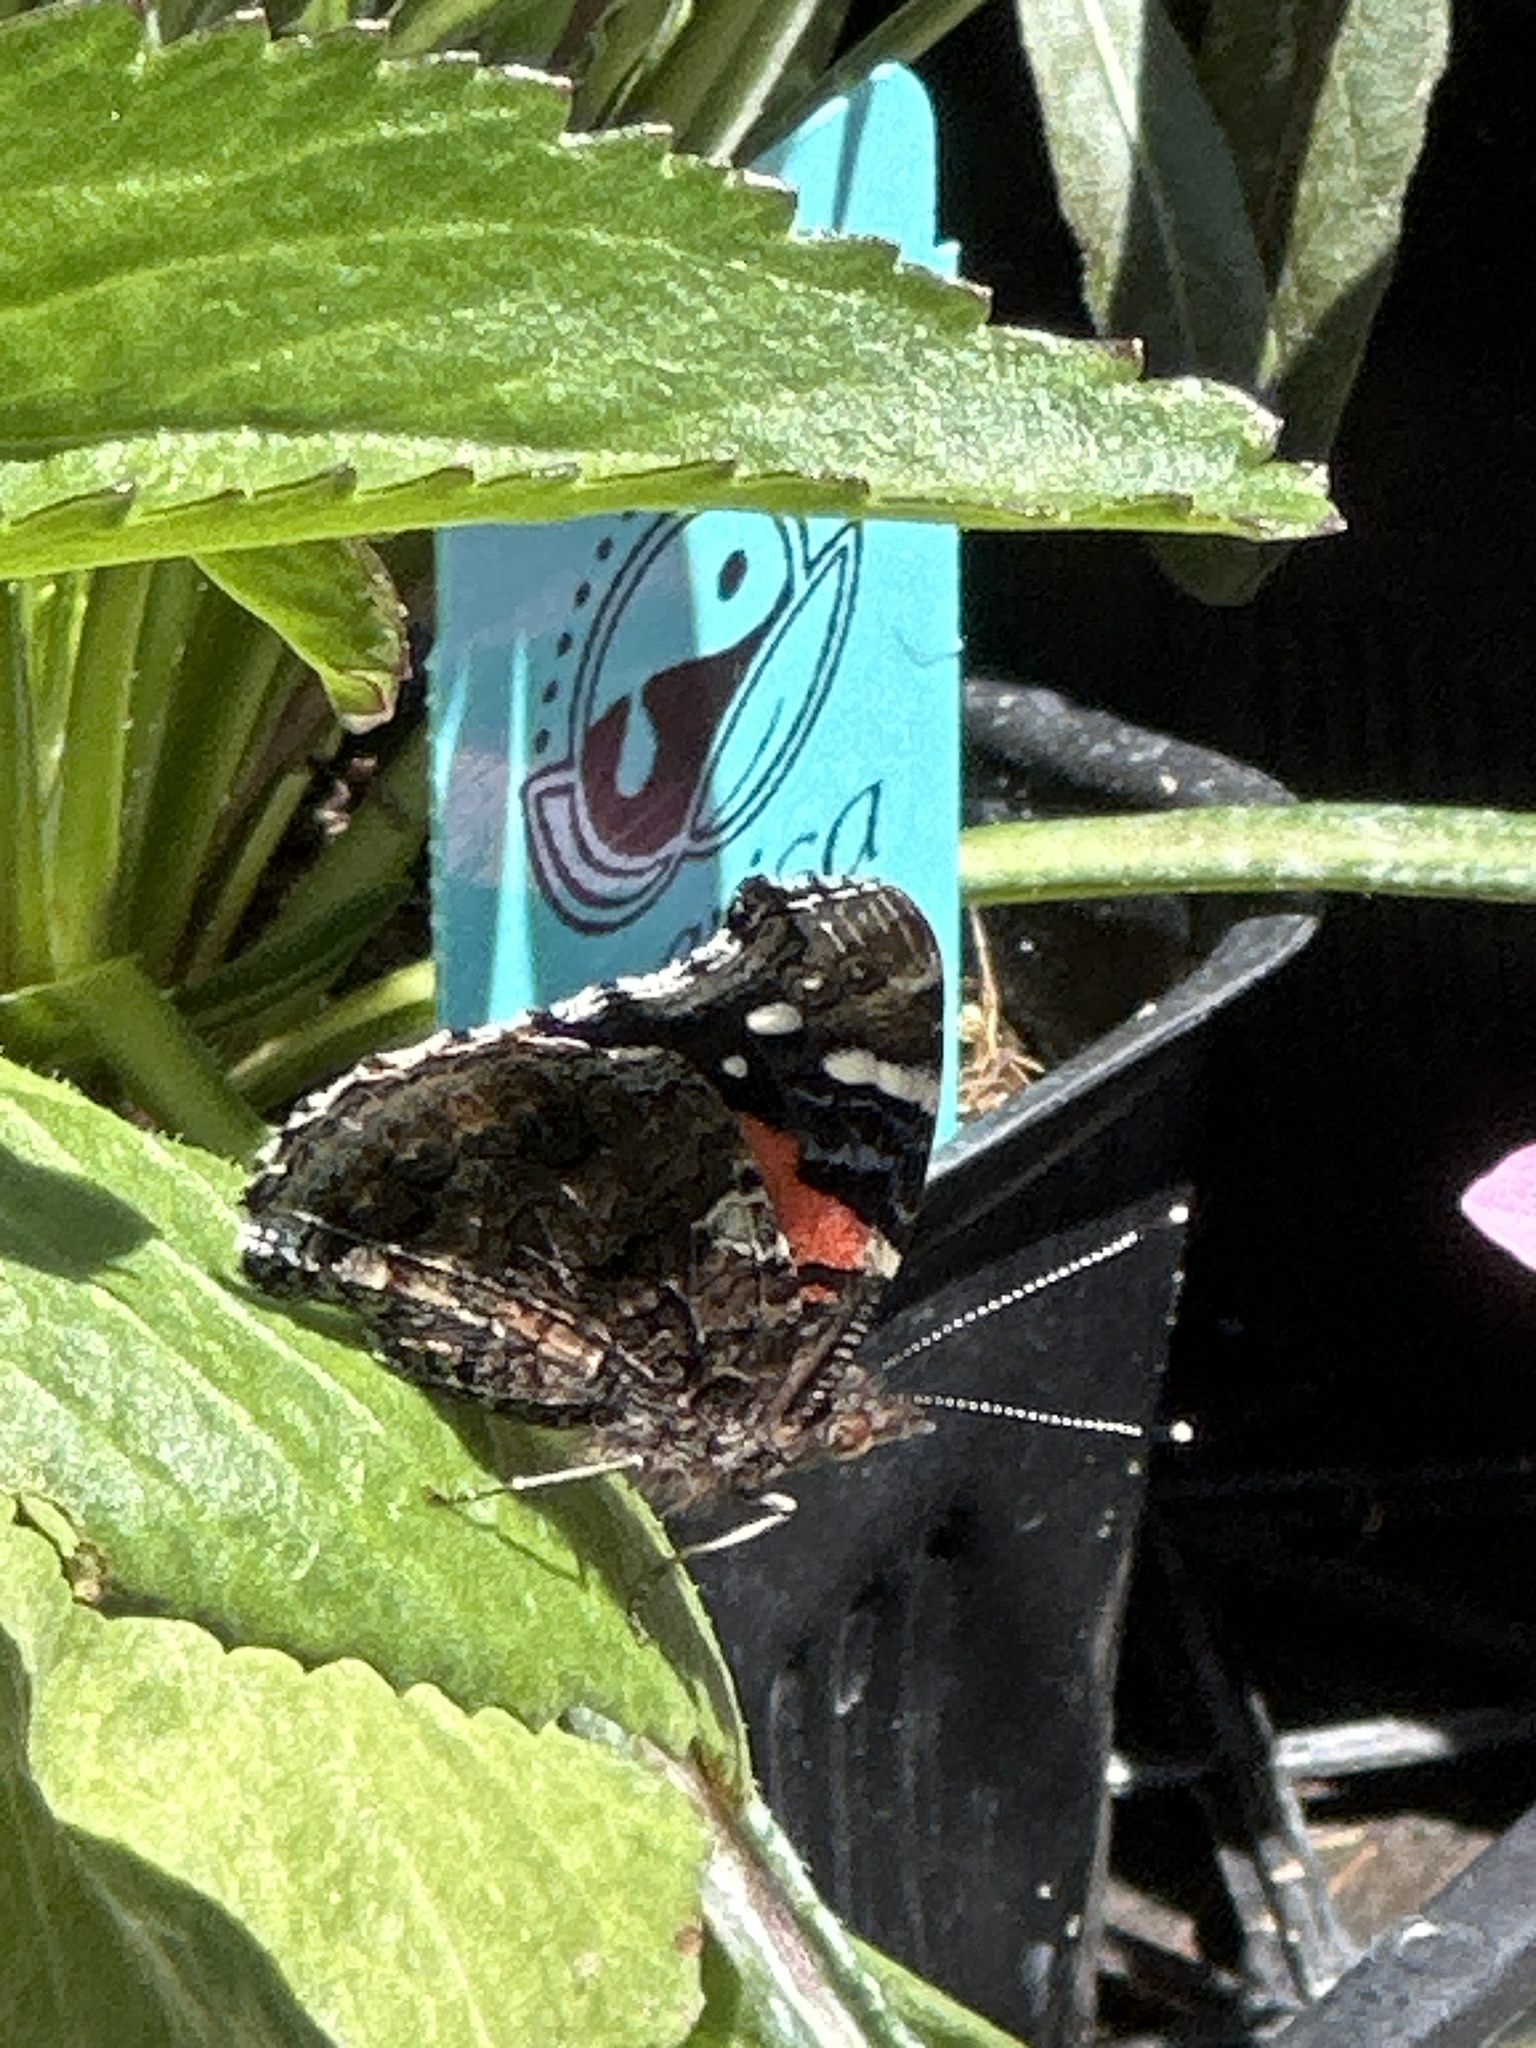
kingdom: Animalia
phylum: Arthropoda
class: Insecta
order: Lepidoptera
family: Nymphalidae
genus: Vanessa
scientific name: Vanessa atalanta
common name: Red admiral
